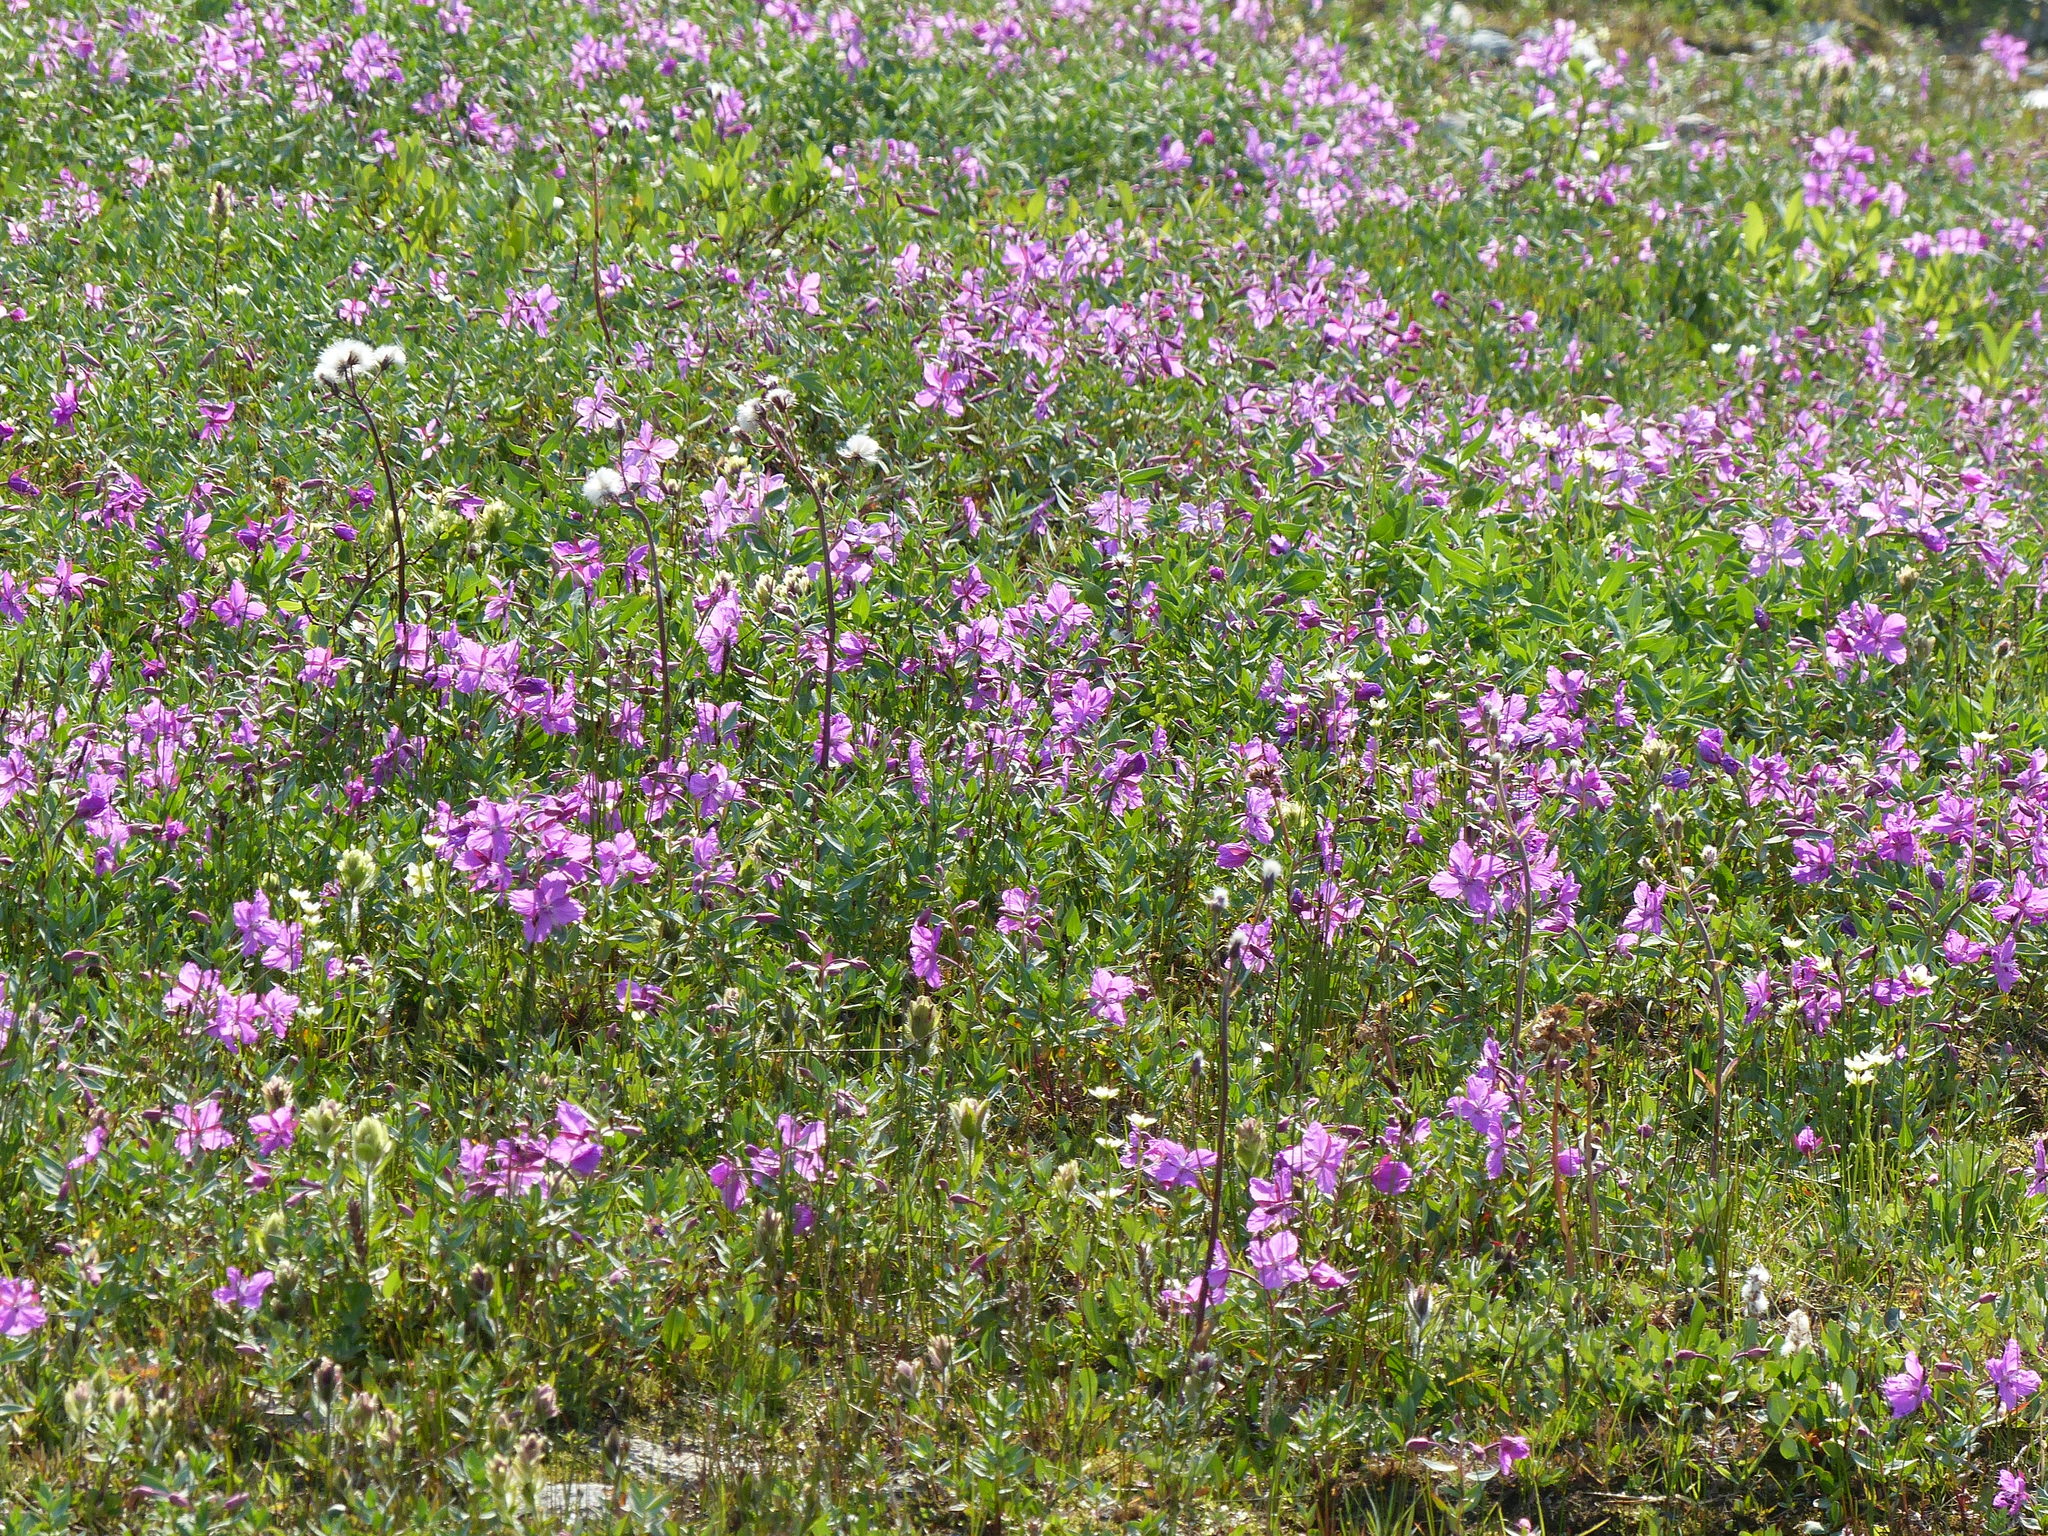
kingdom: Plantae
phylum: Tracheophyta
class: Magnoliopsida
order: Myrtales
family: Onagraceae
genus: Chamaenerion
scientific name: Chamaenerion latifolium
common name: Dwarf fireweed
